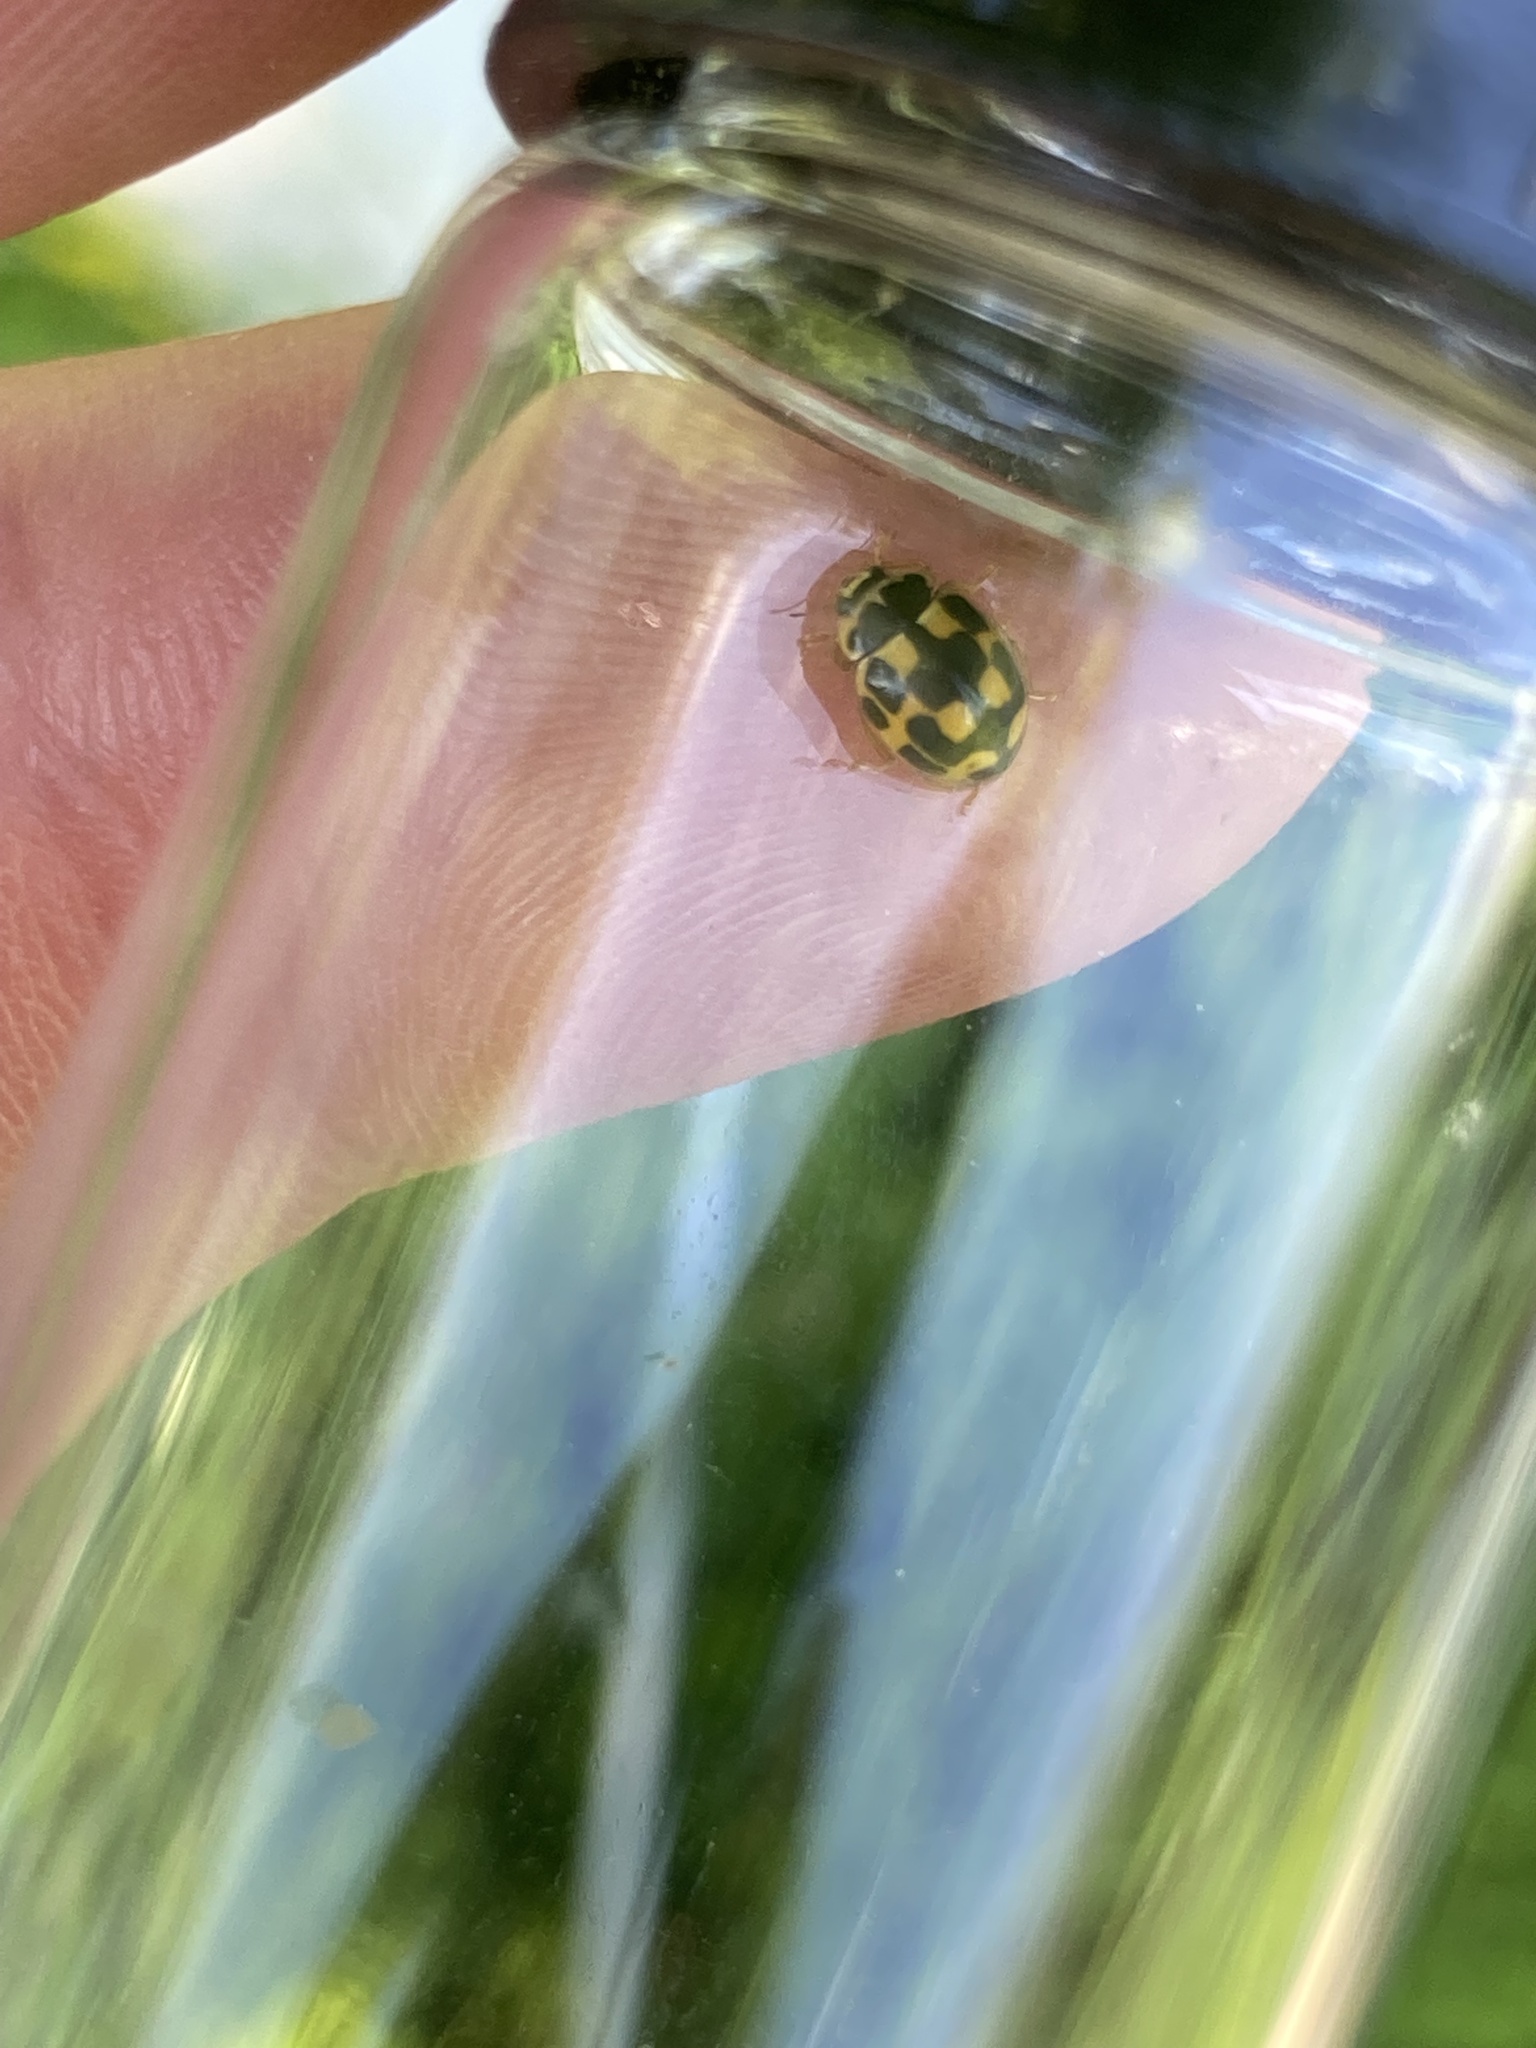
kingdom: Animalia
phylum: Arthropoda
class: Insecta
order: Coleoptera
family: Coccinellidae
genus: Propylaea
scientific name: Propylaea quatuordecimpunctata
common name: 14-spotted ladybird beetle
